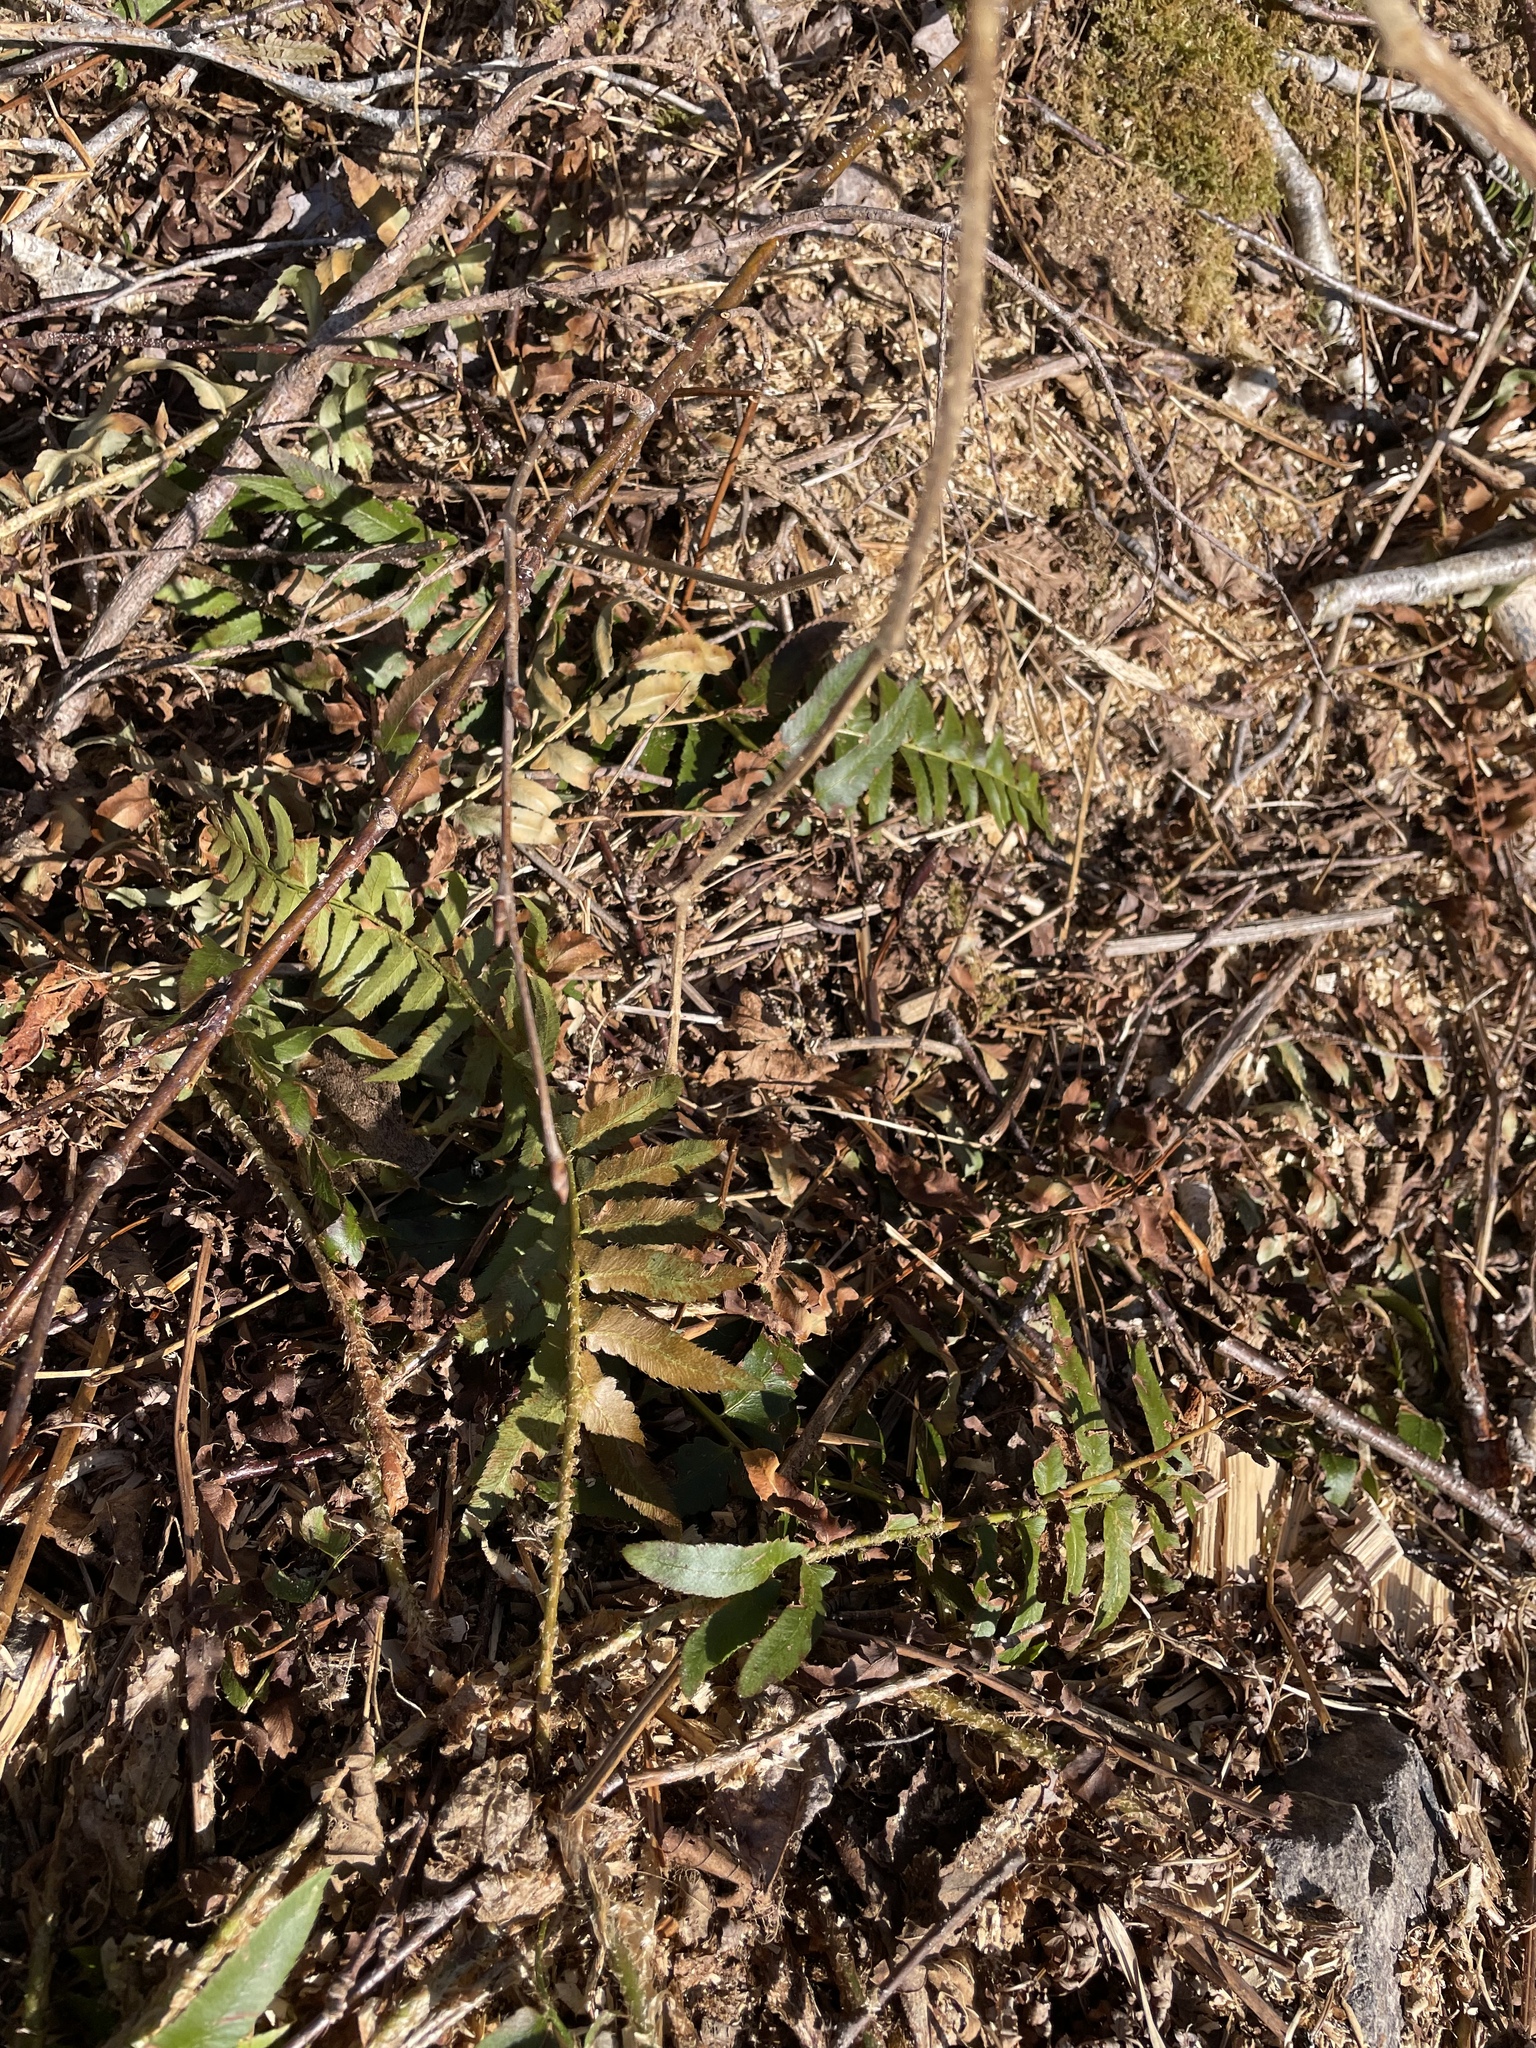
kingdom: Plantae
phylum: Tracheophyta
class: Polypodiopsida
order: Polypodiales
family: Dryopteridaceae
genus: Polystichum
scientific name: Polystichum acrostichoides
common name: Christmas fern
